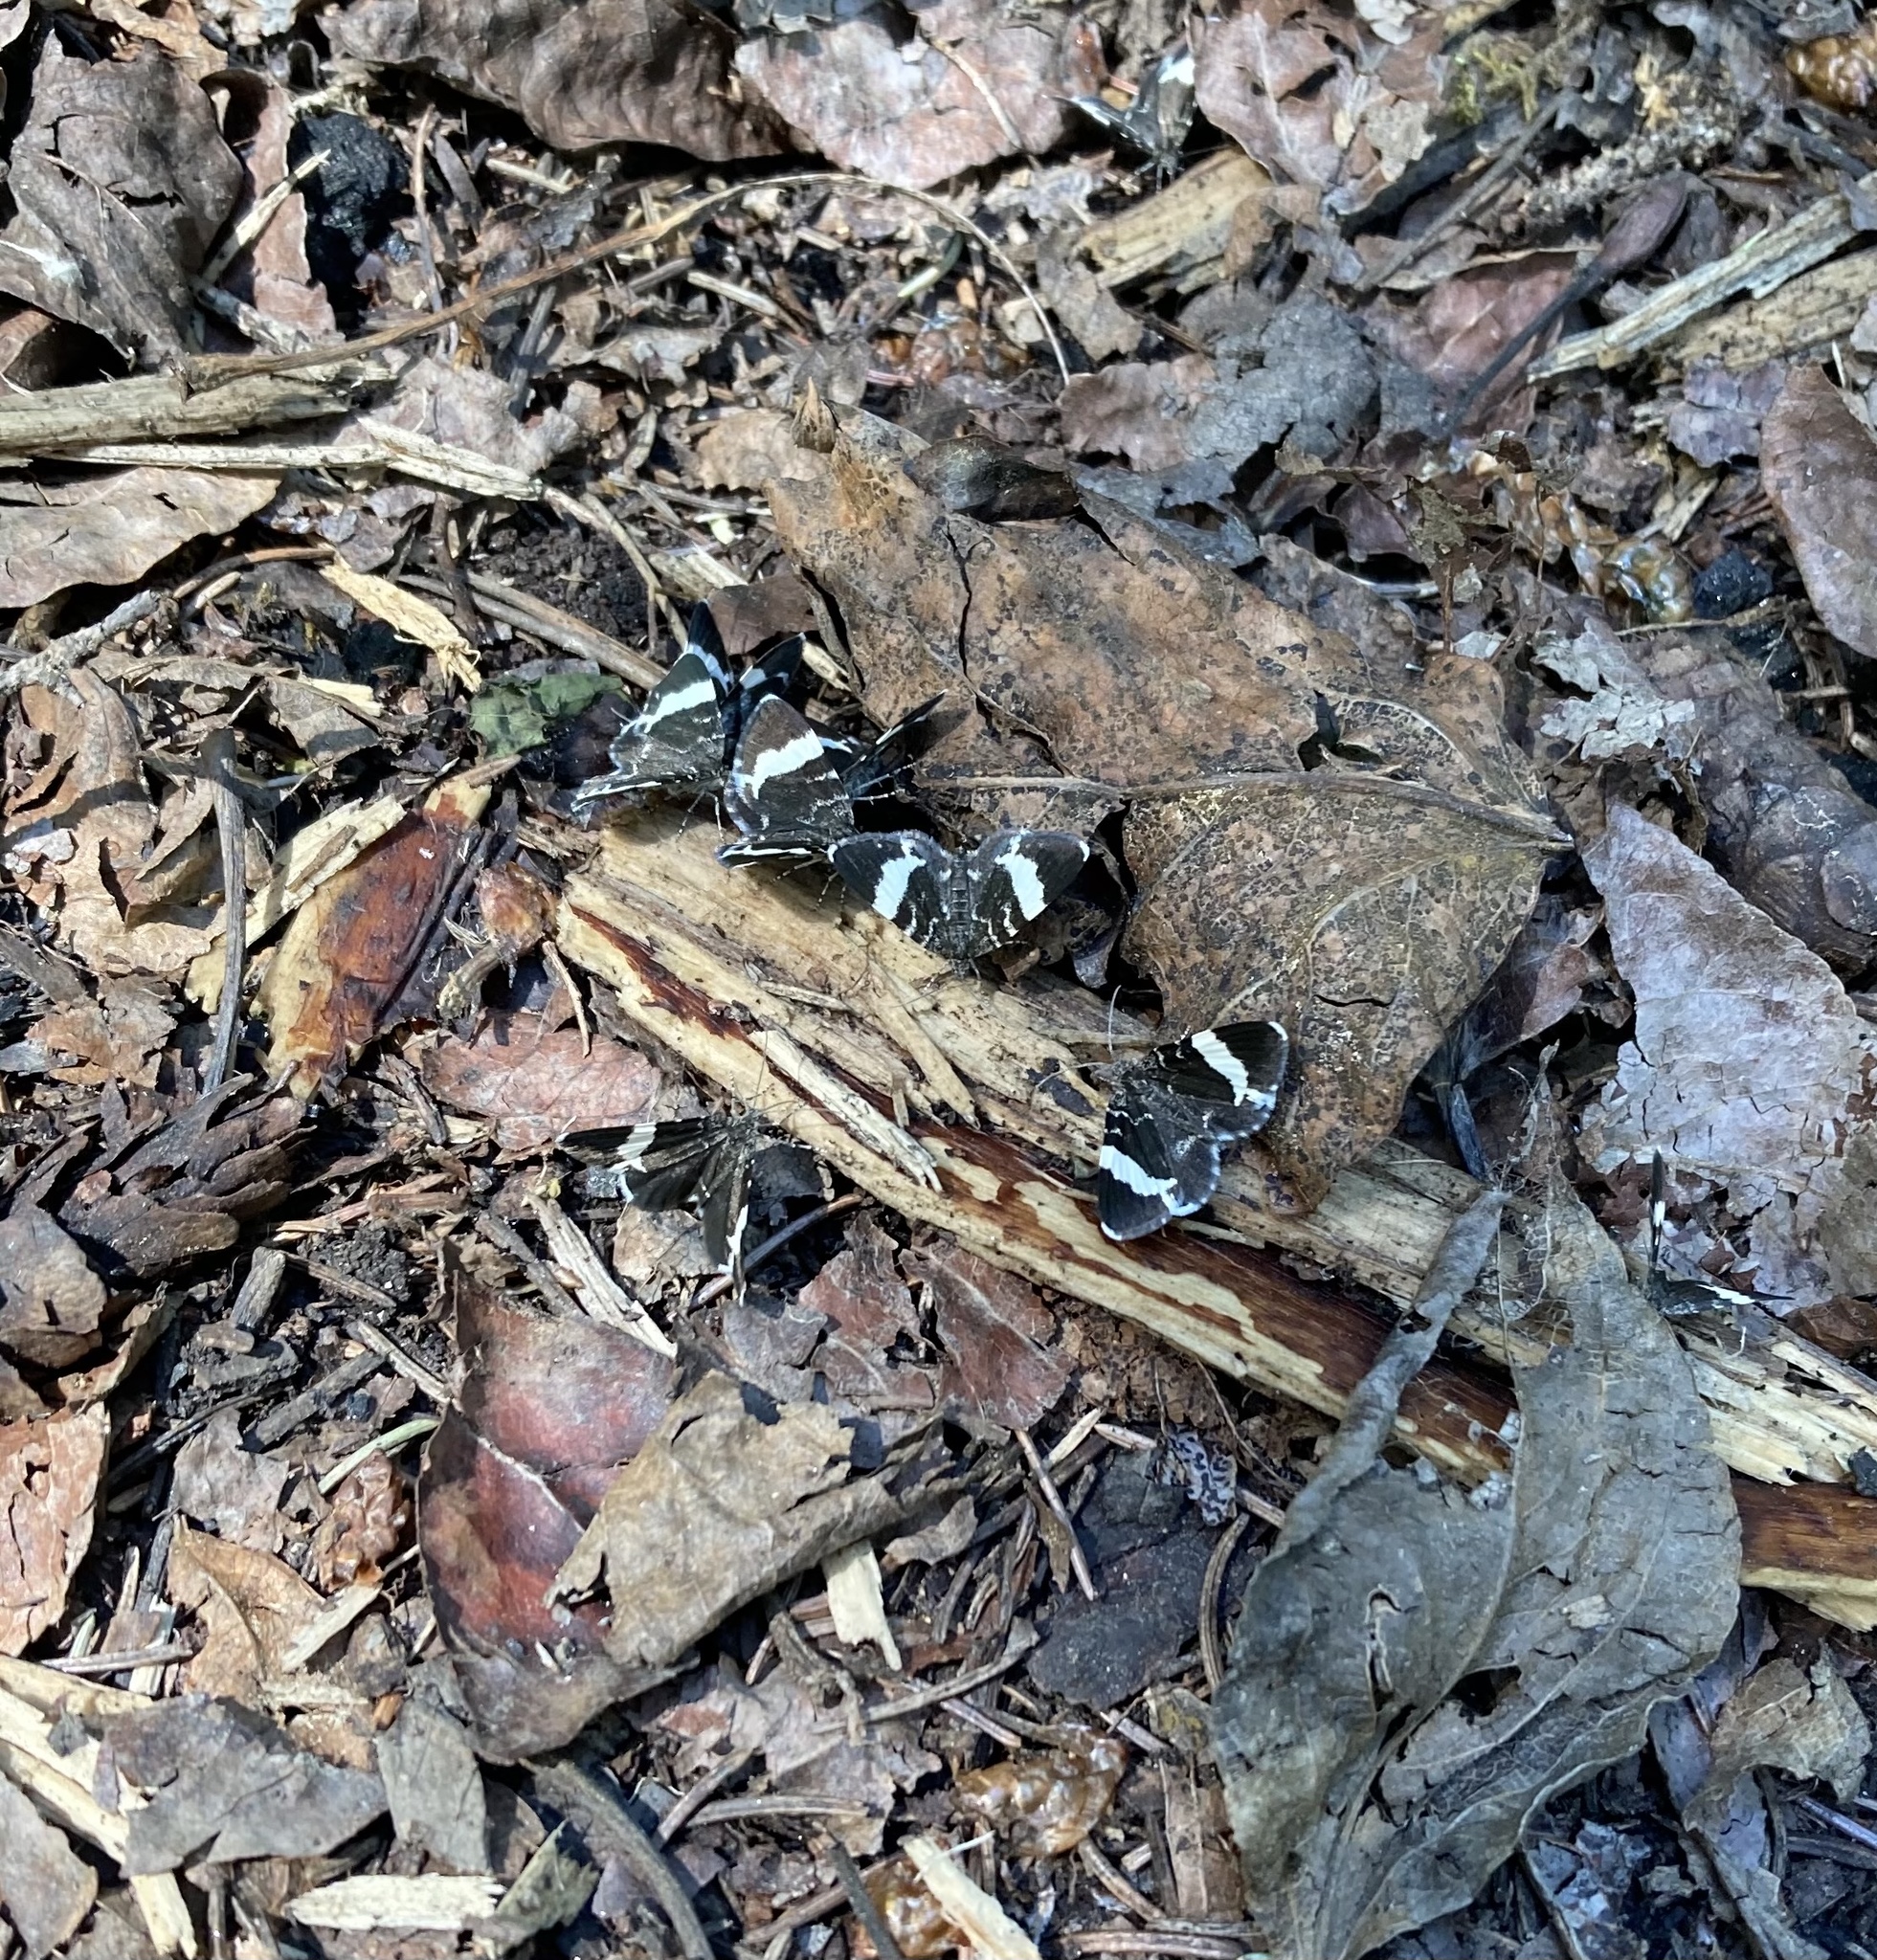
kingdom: Animalia
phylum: Arthropoda
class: Insecta
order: Lepidoptera
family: Geometridae
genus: Trichodezia
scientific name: Trichodezia albovittata
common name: White striped black
